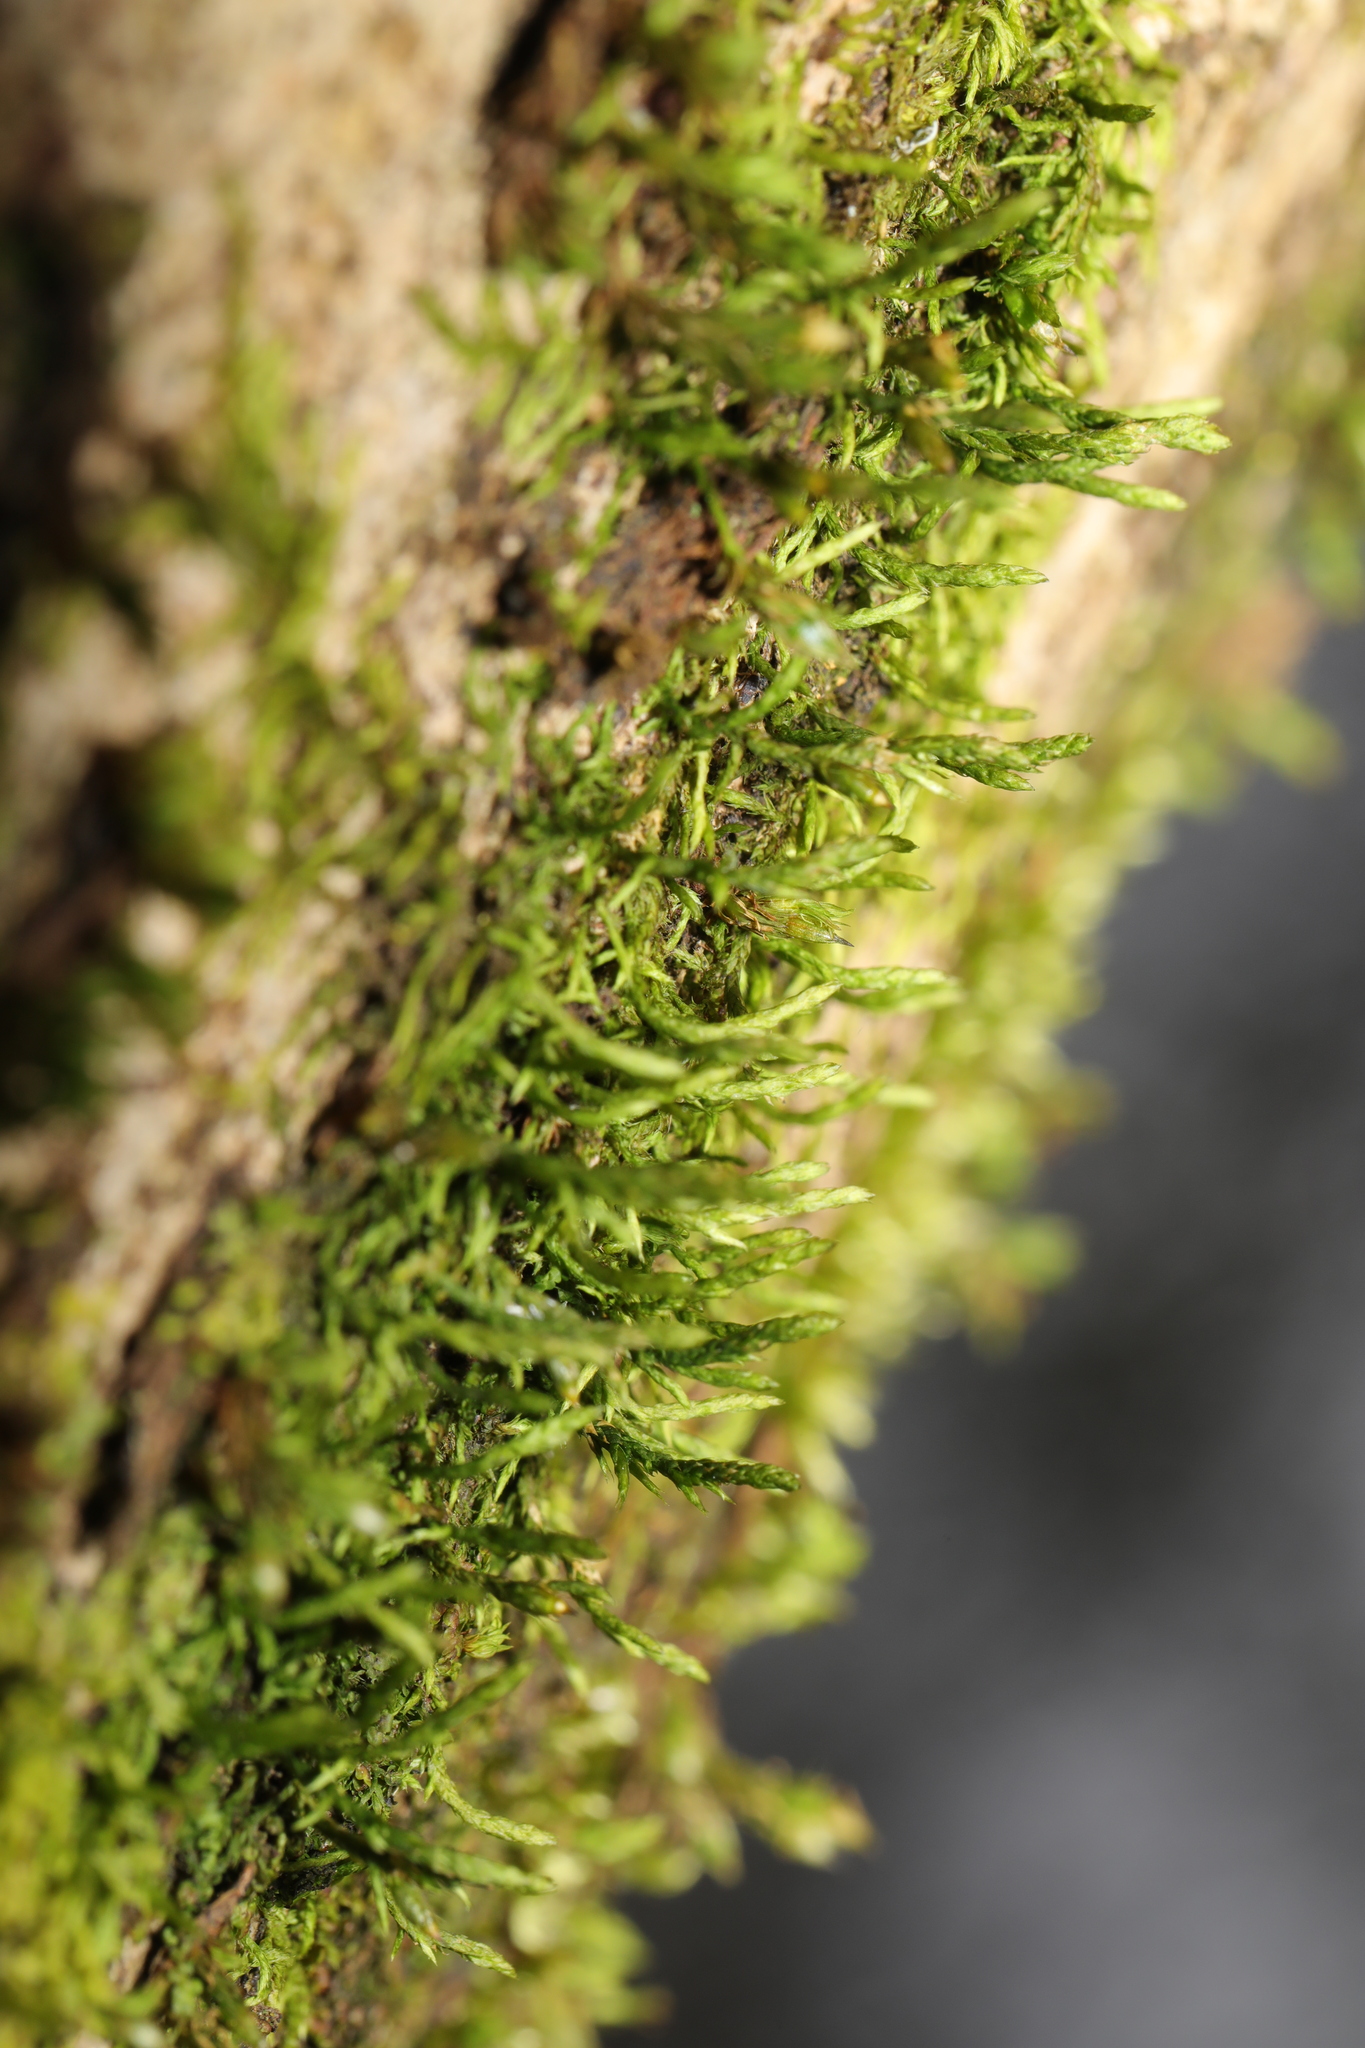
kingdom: Plantae
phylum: Bryophyta
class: Bryopsida
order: Hypnales
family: Cryphaeaceae
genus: Cryphaea
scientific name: Cryphaea heteromalla
